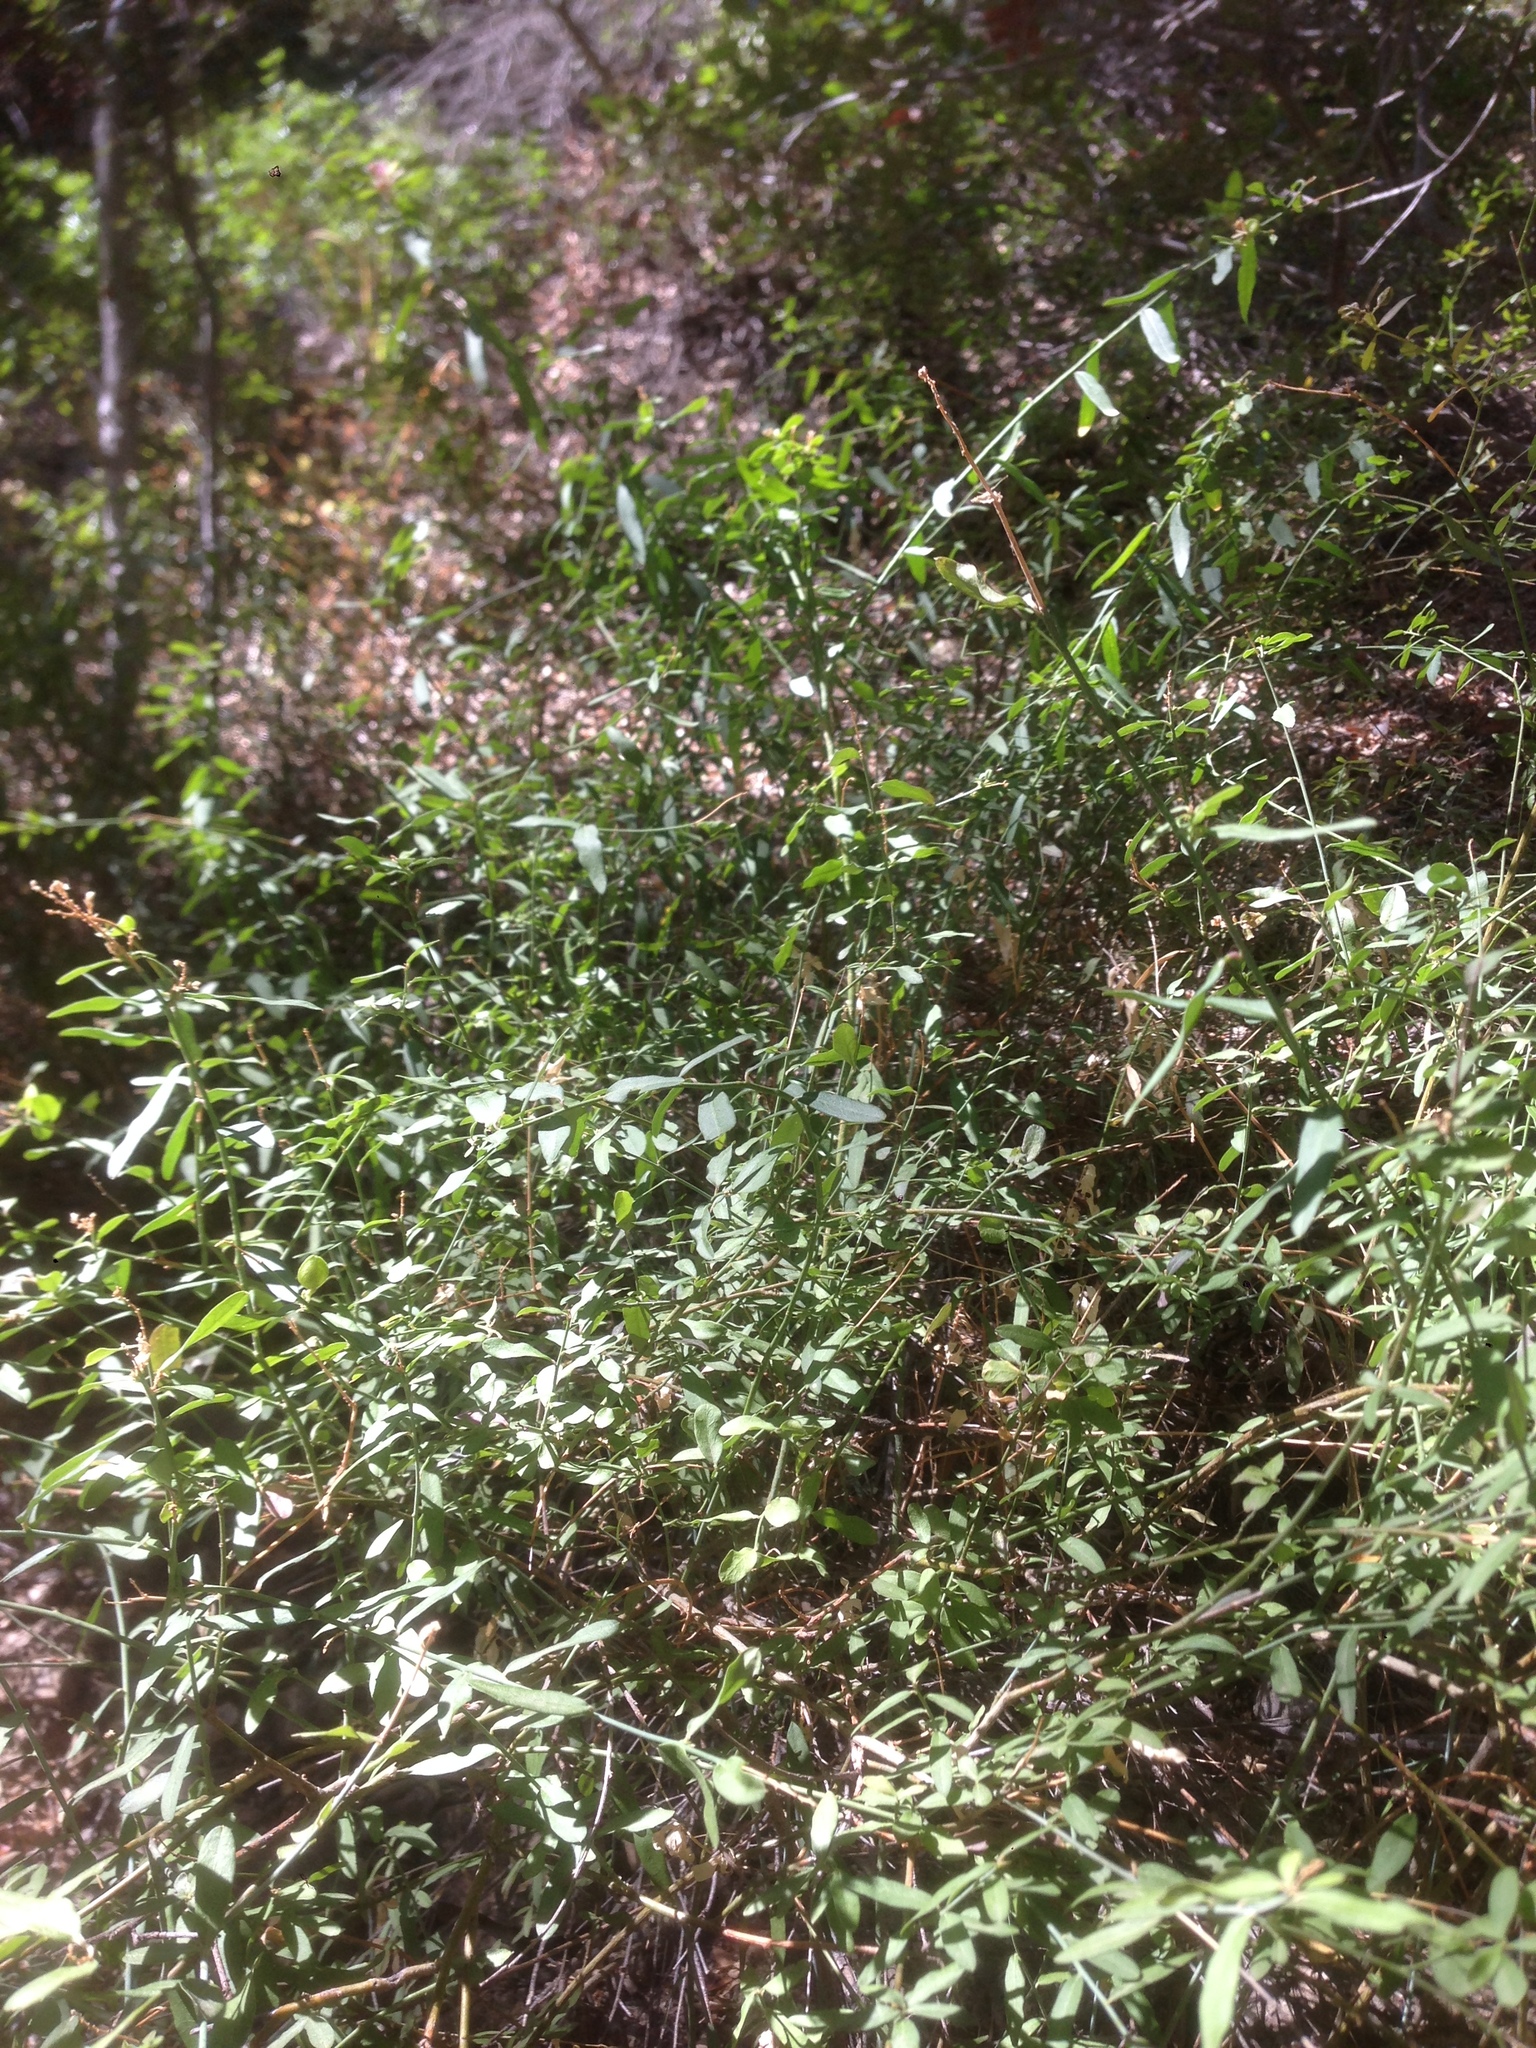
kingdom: Plantae
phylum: Tracheophyta
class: Magnoliopsida
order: Fabales
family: Polygalaceae
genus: Rhinotropis
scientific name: Rhinotropis cornuta
